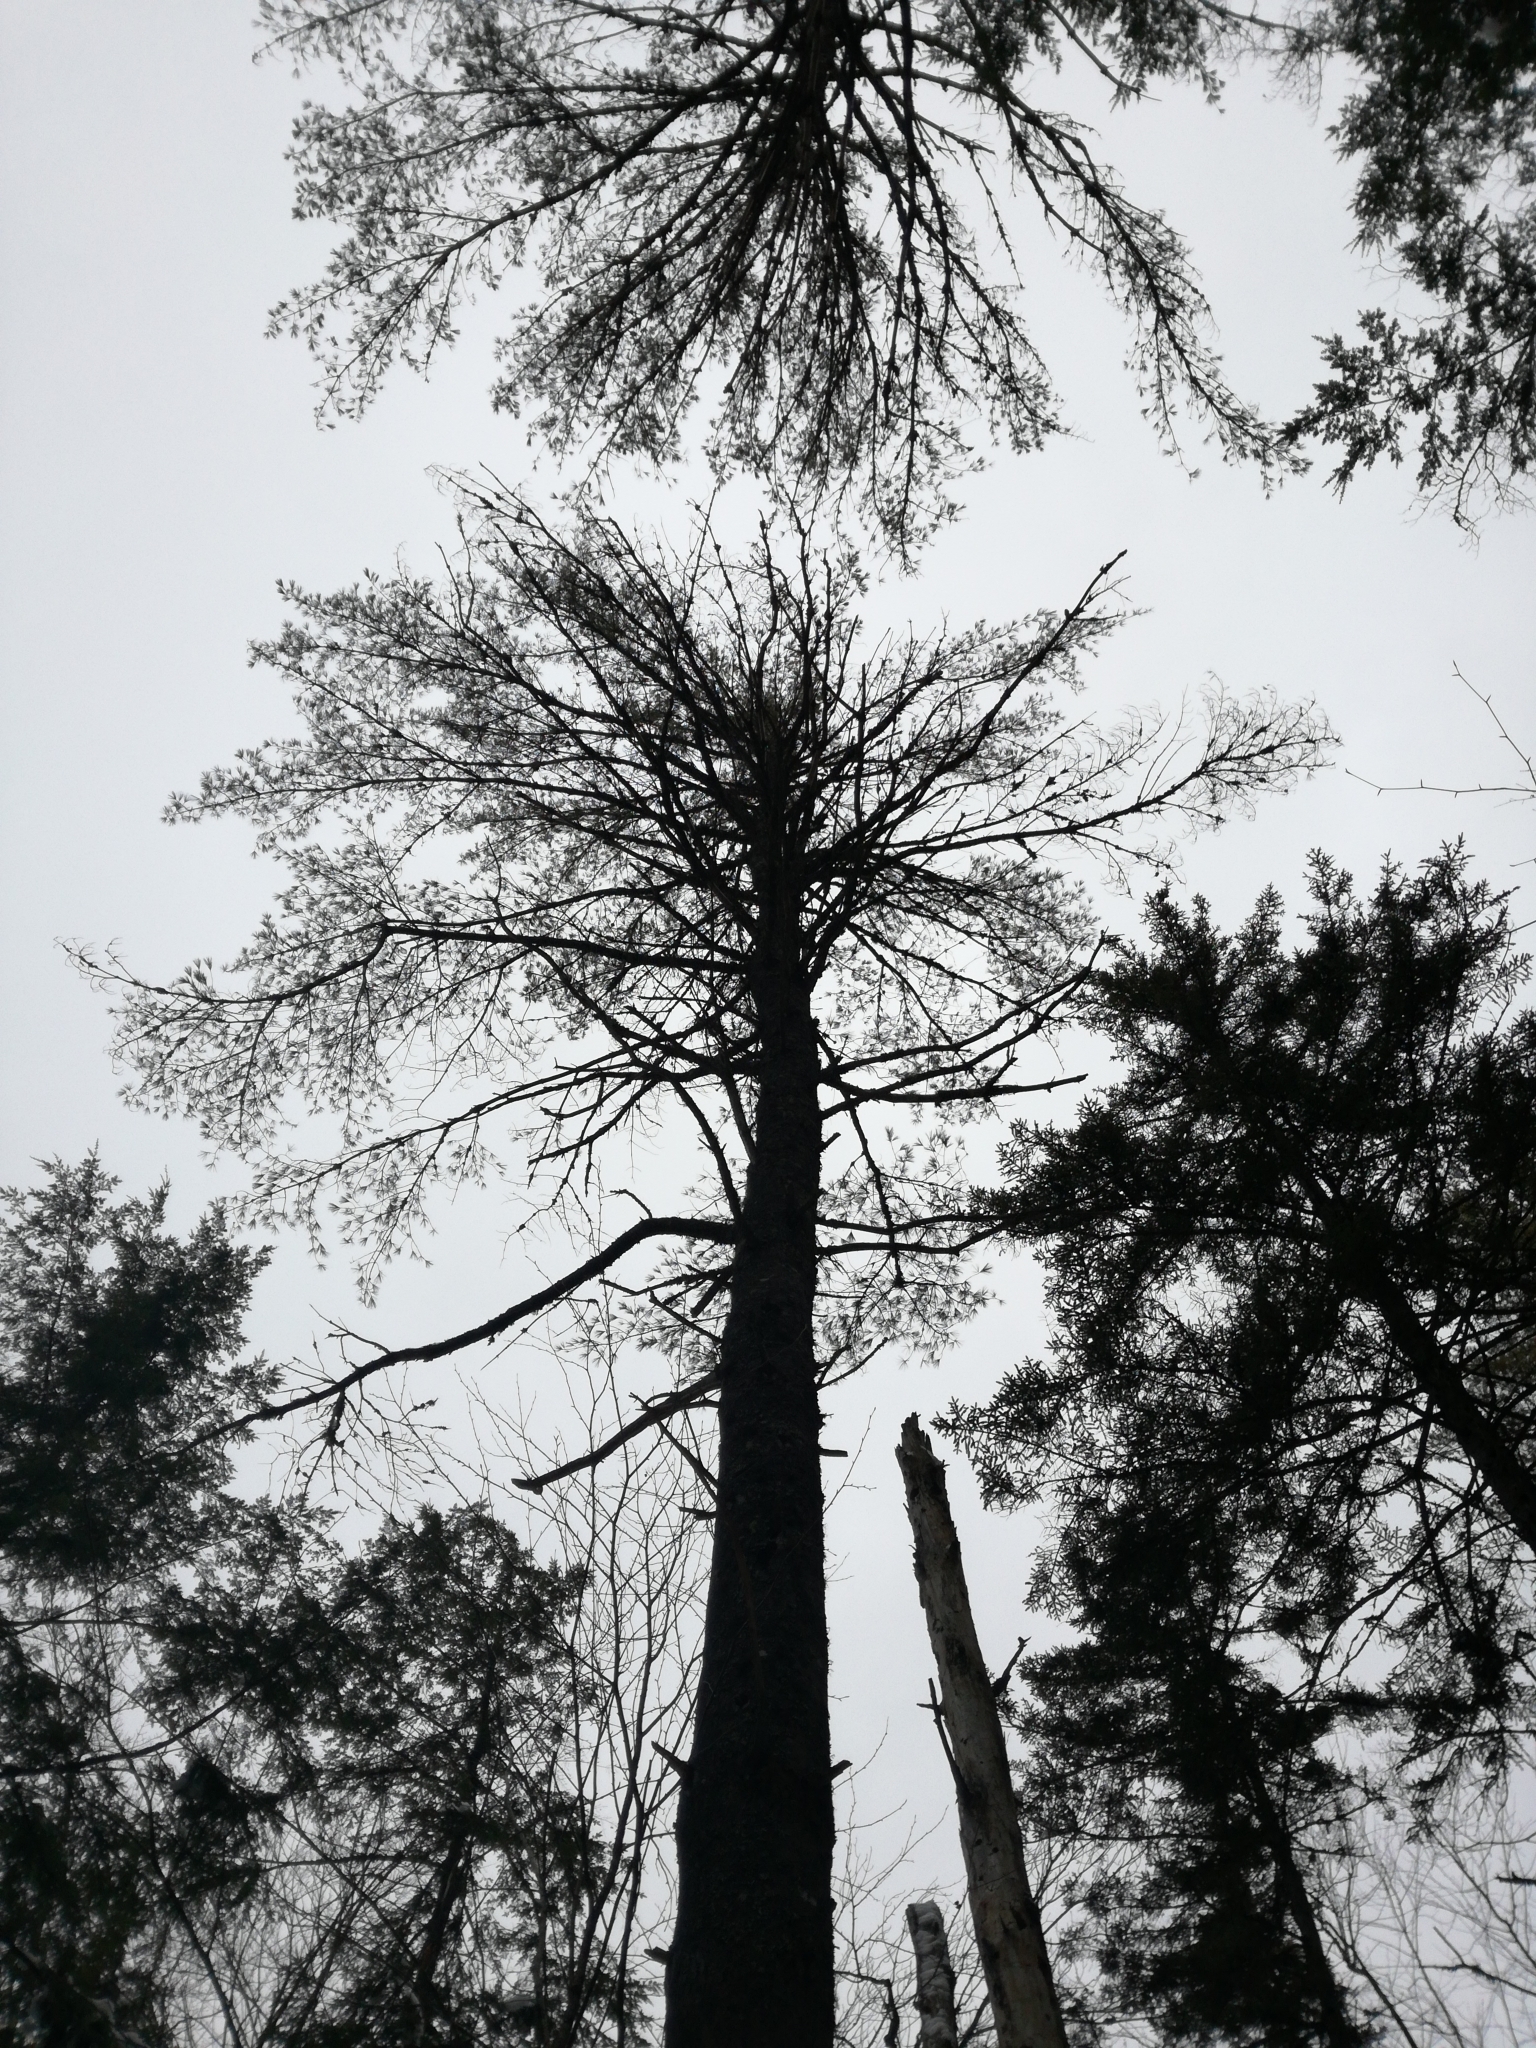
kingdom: Plantae
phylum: Tracheophyta
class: Pinopsida
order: Pinales
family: Pinaceae
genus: Pinus
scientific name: Pinus strobus
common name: Weymouth pine
